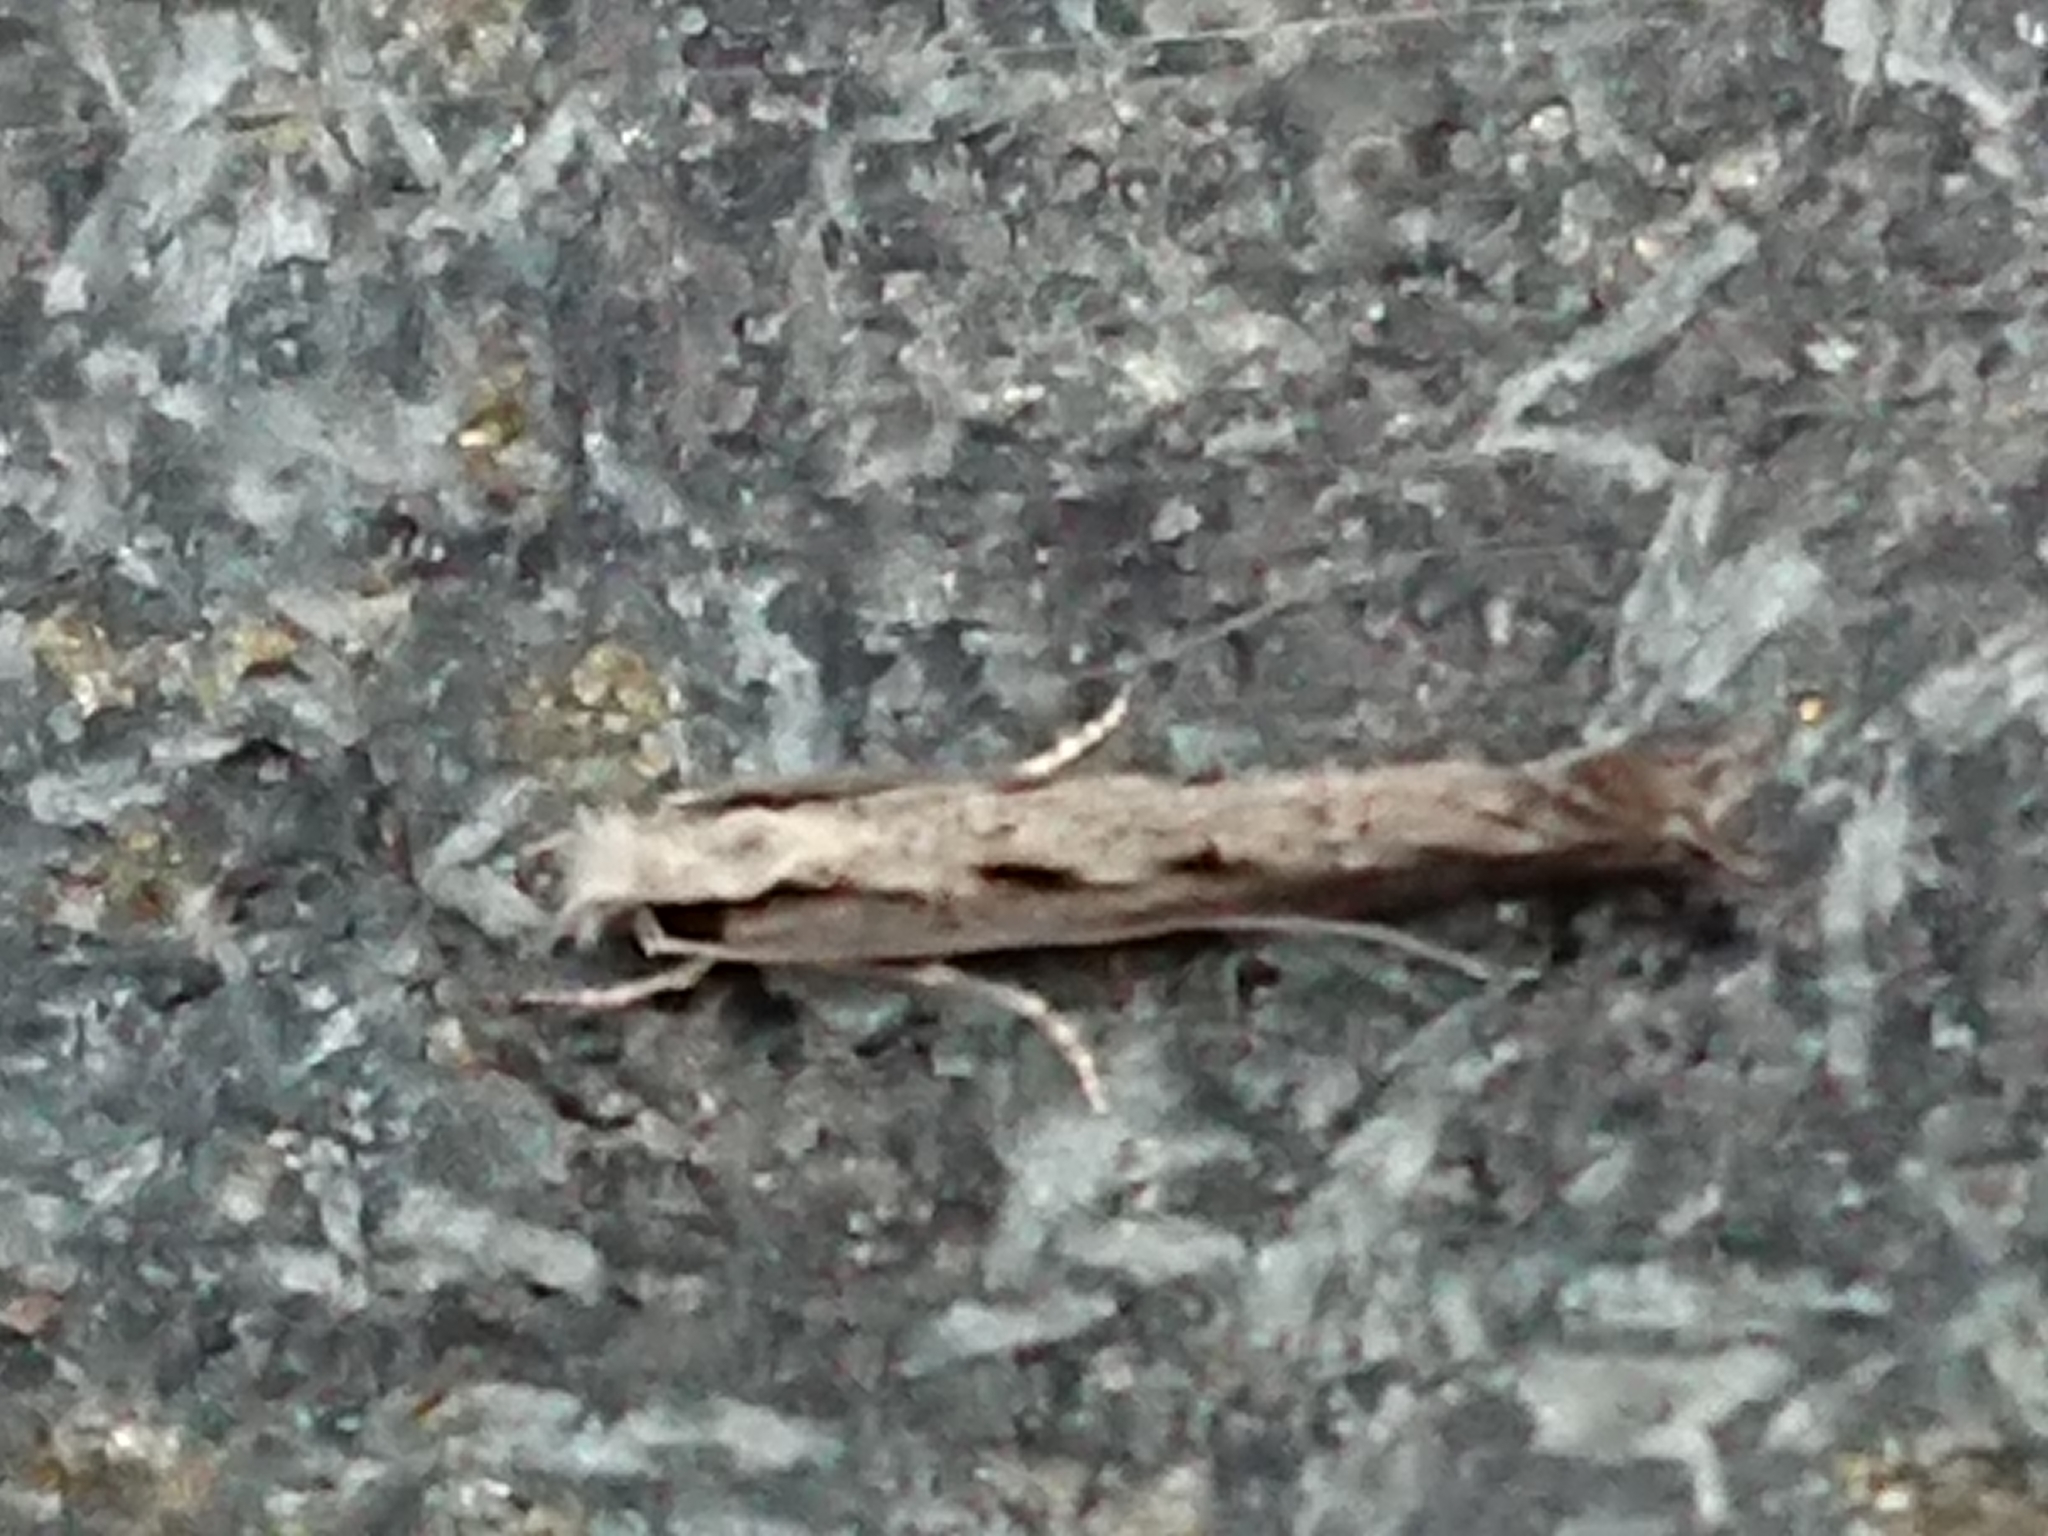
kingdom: Animalia
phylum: Arthropoda
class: Insecta
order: Lepidoptera
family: Tineidae
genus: Erechthias
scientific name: Erechthias fulguritella
